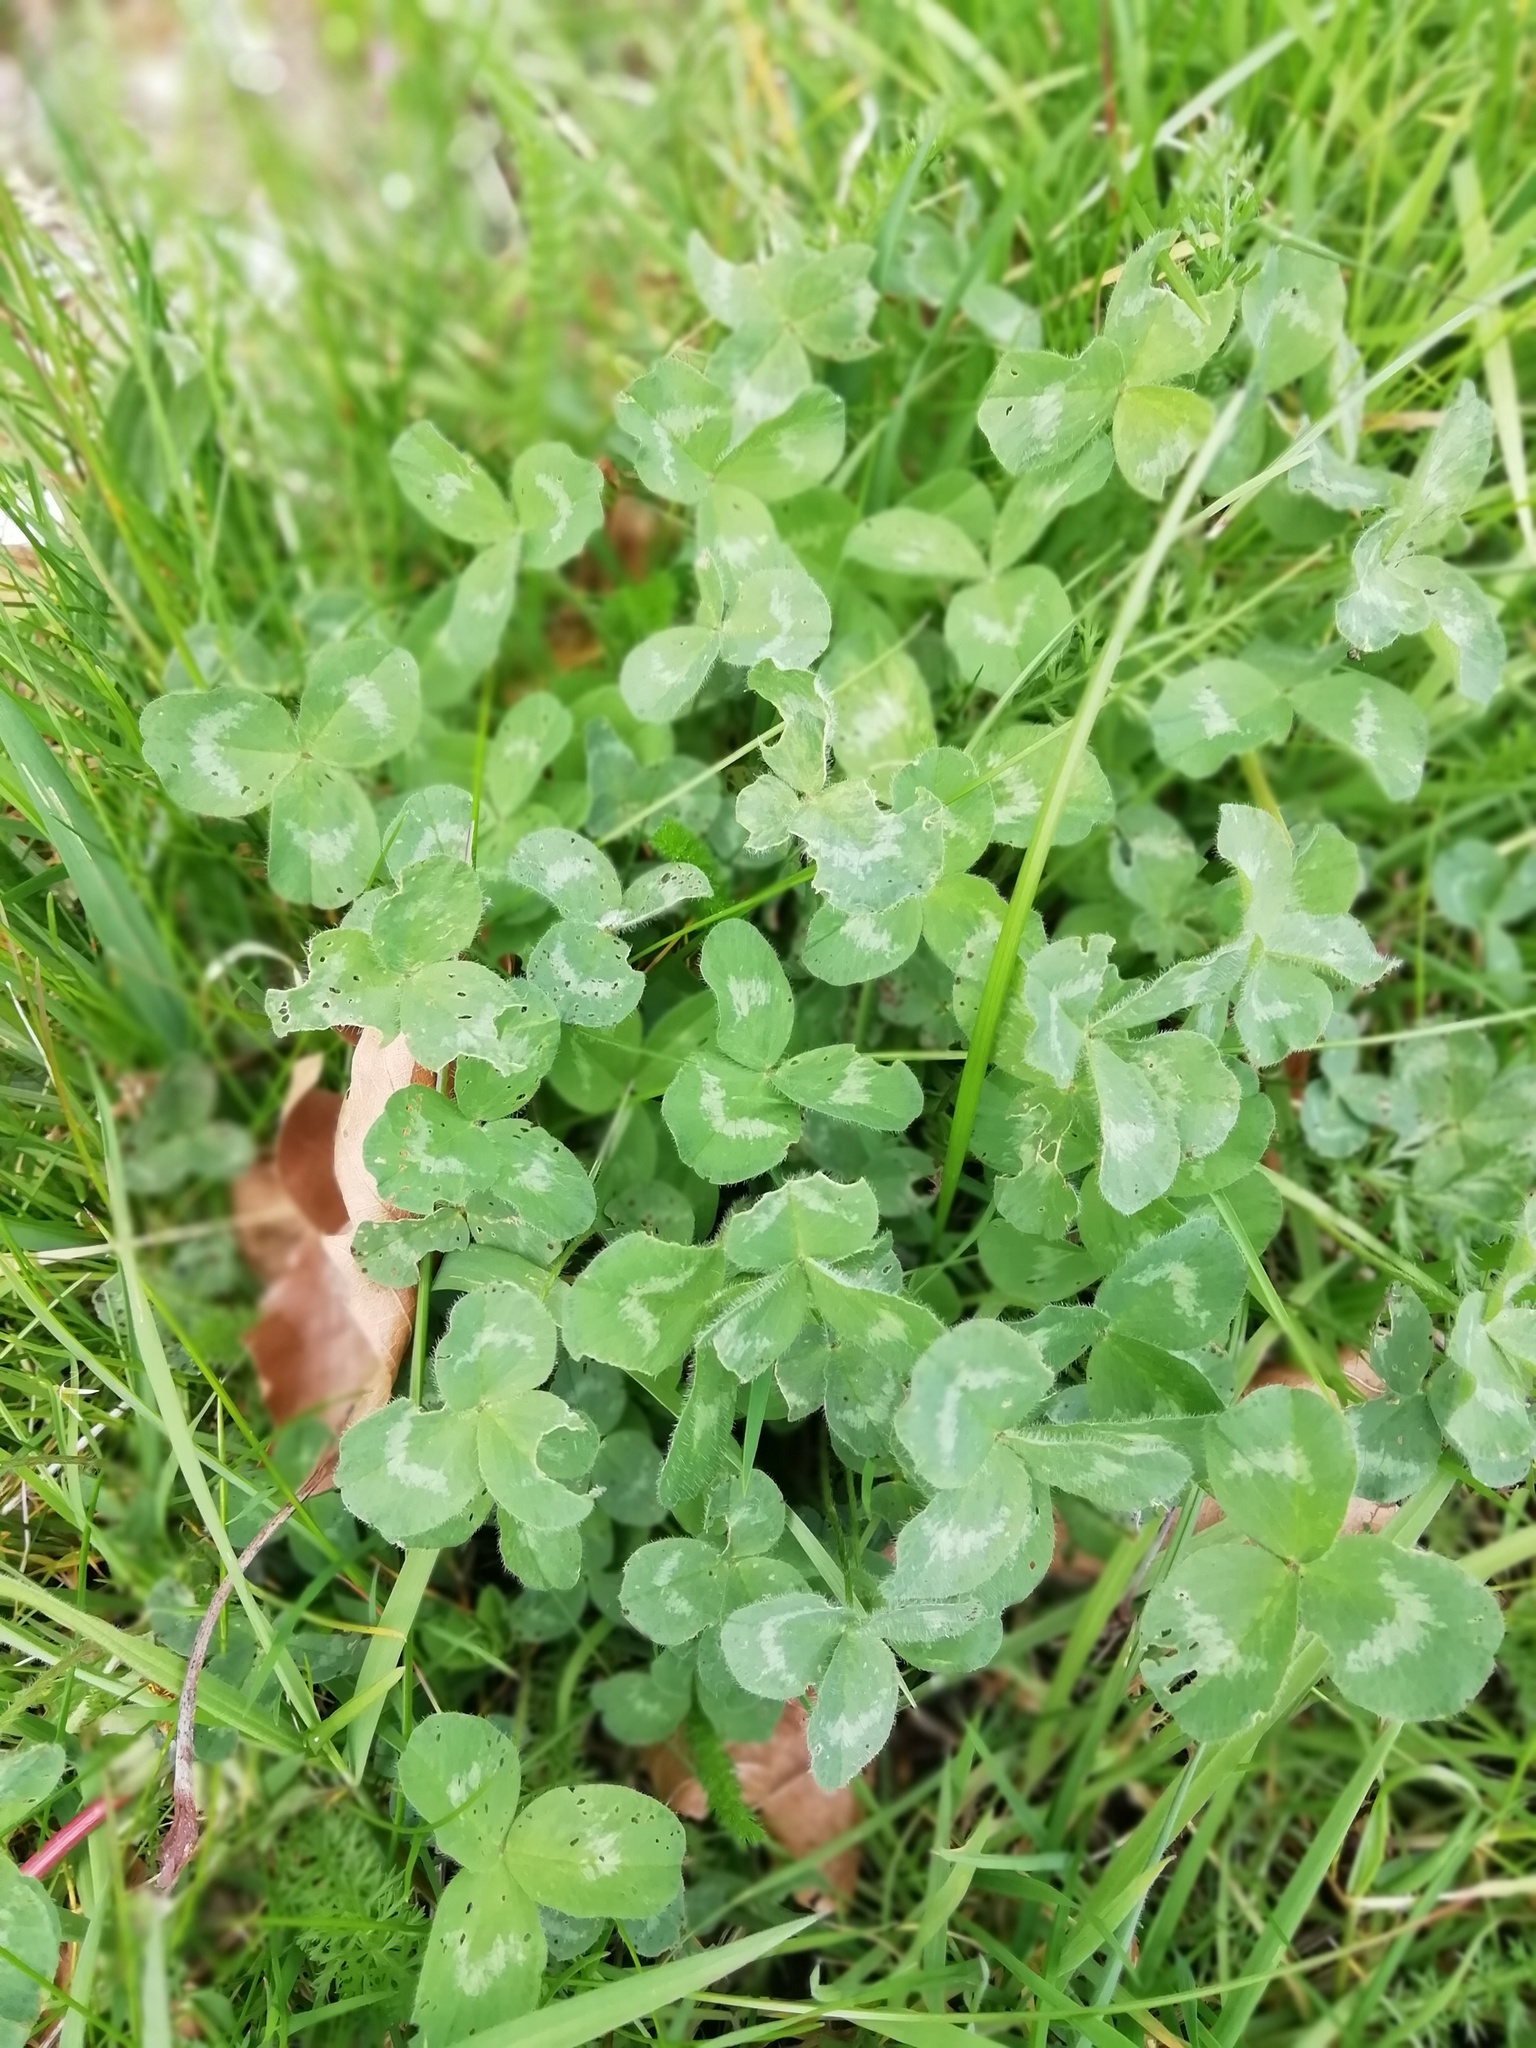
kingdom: Plantae
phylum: Tracheophyta
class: Magnoliopsida
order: Fabales
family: Fabaceae
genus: Trifolium
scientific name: Trifolium pratense
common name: Red clover
